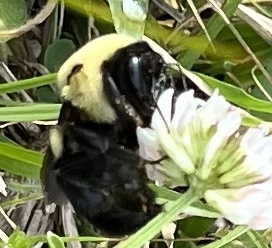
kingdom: Animalia
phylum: Arthropoda
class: Insecta
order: Hymenoptera
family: Apidae
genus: Bombus
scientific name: Bombus griseocollis
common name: Brown-belted bumble bee
